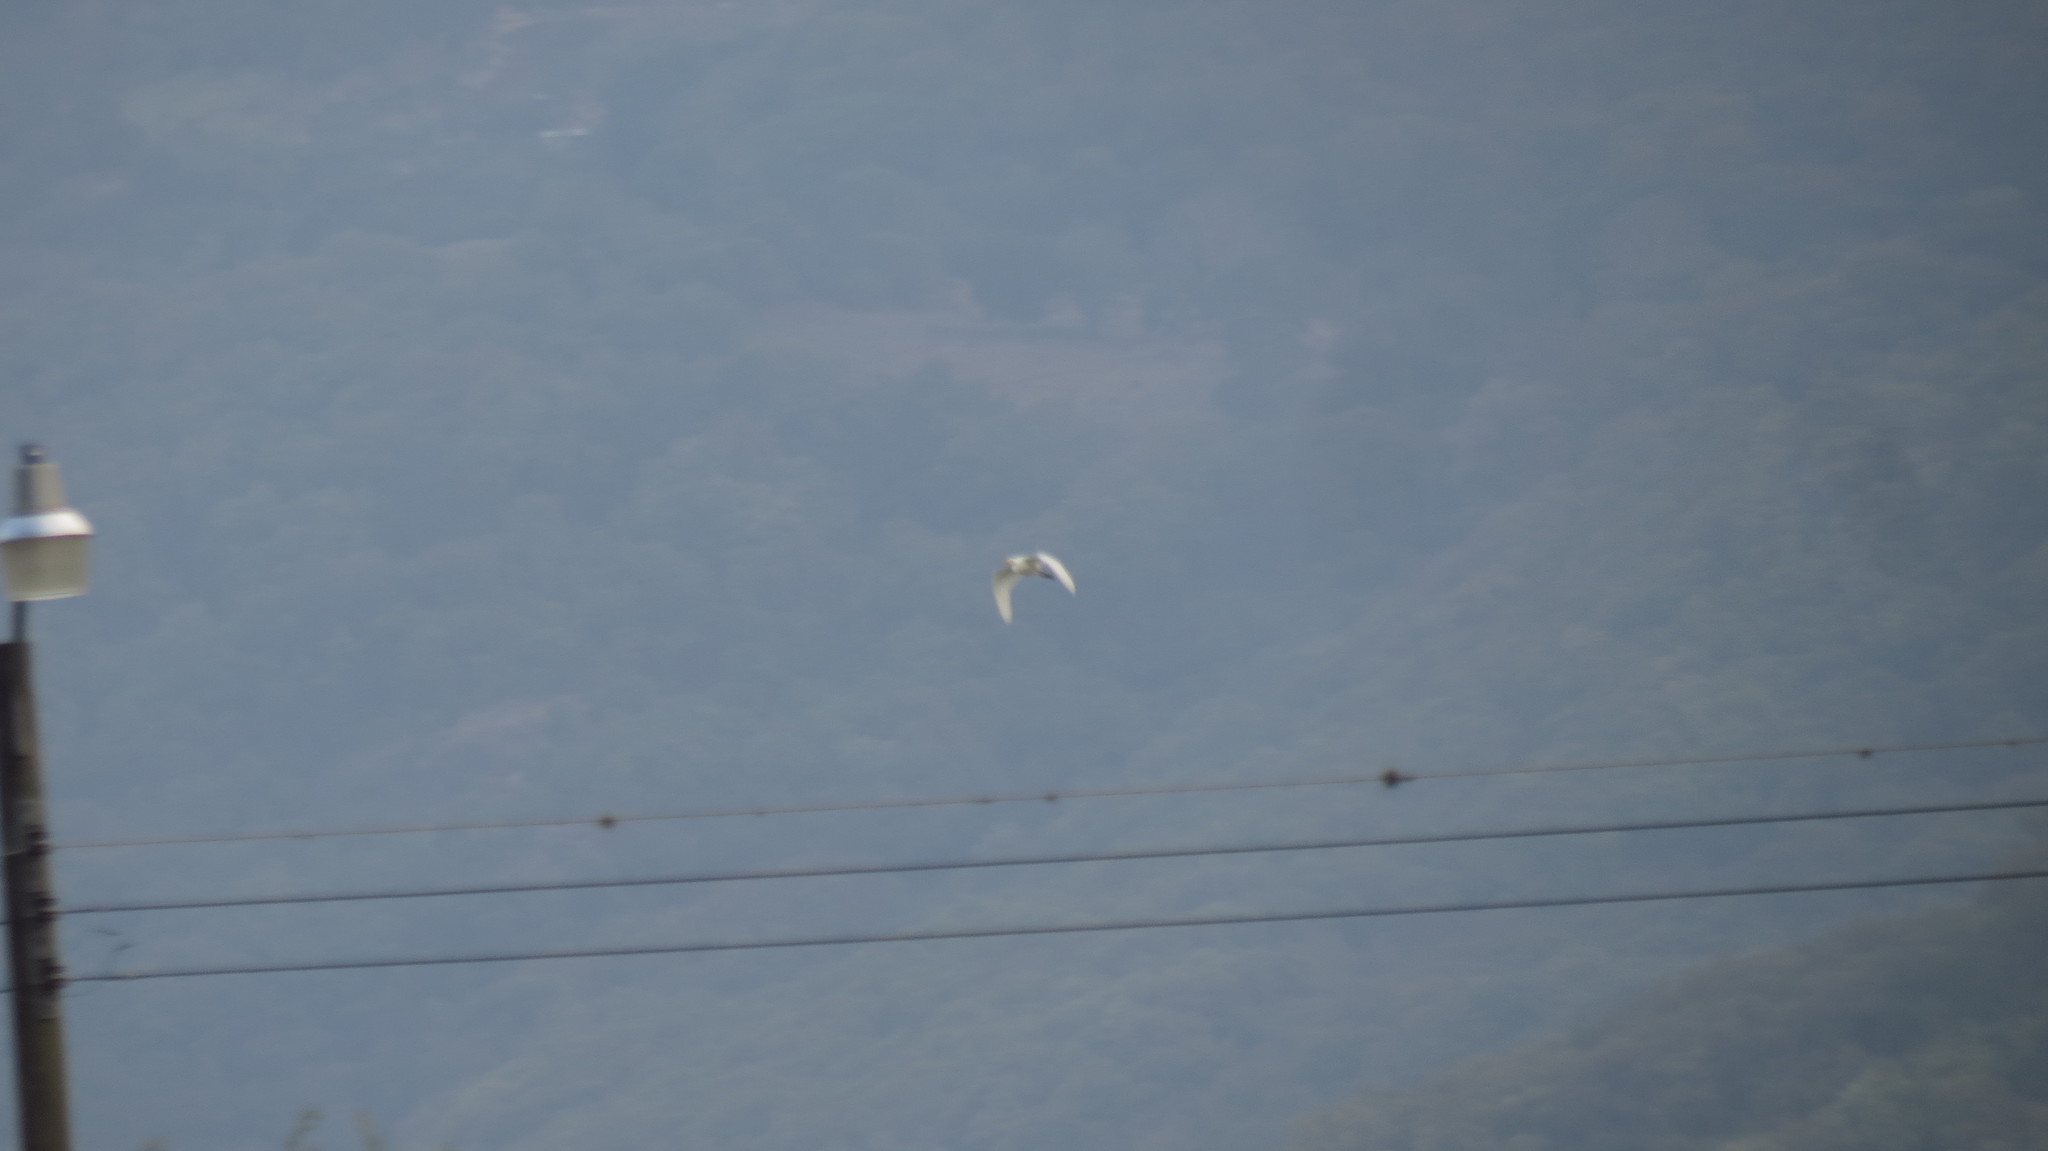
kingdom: Animalia
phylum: Chordata
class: Aves
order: Pelecaniformes
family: Ardeidae
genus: Bubulcus
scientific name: Bubulcus ibis
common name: Cattle egret
